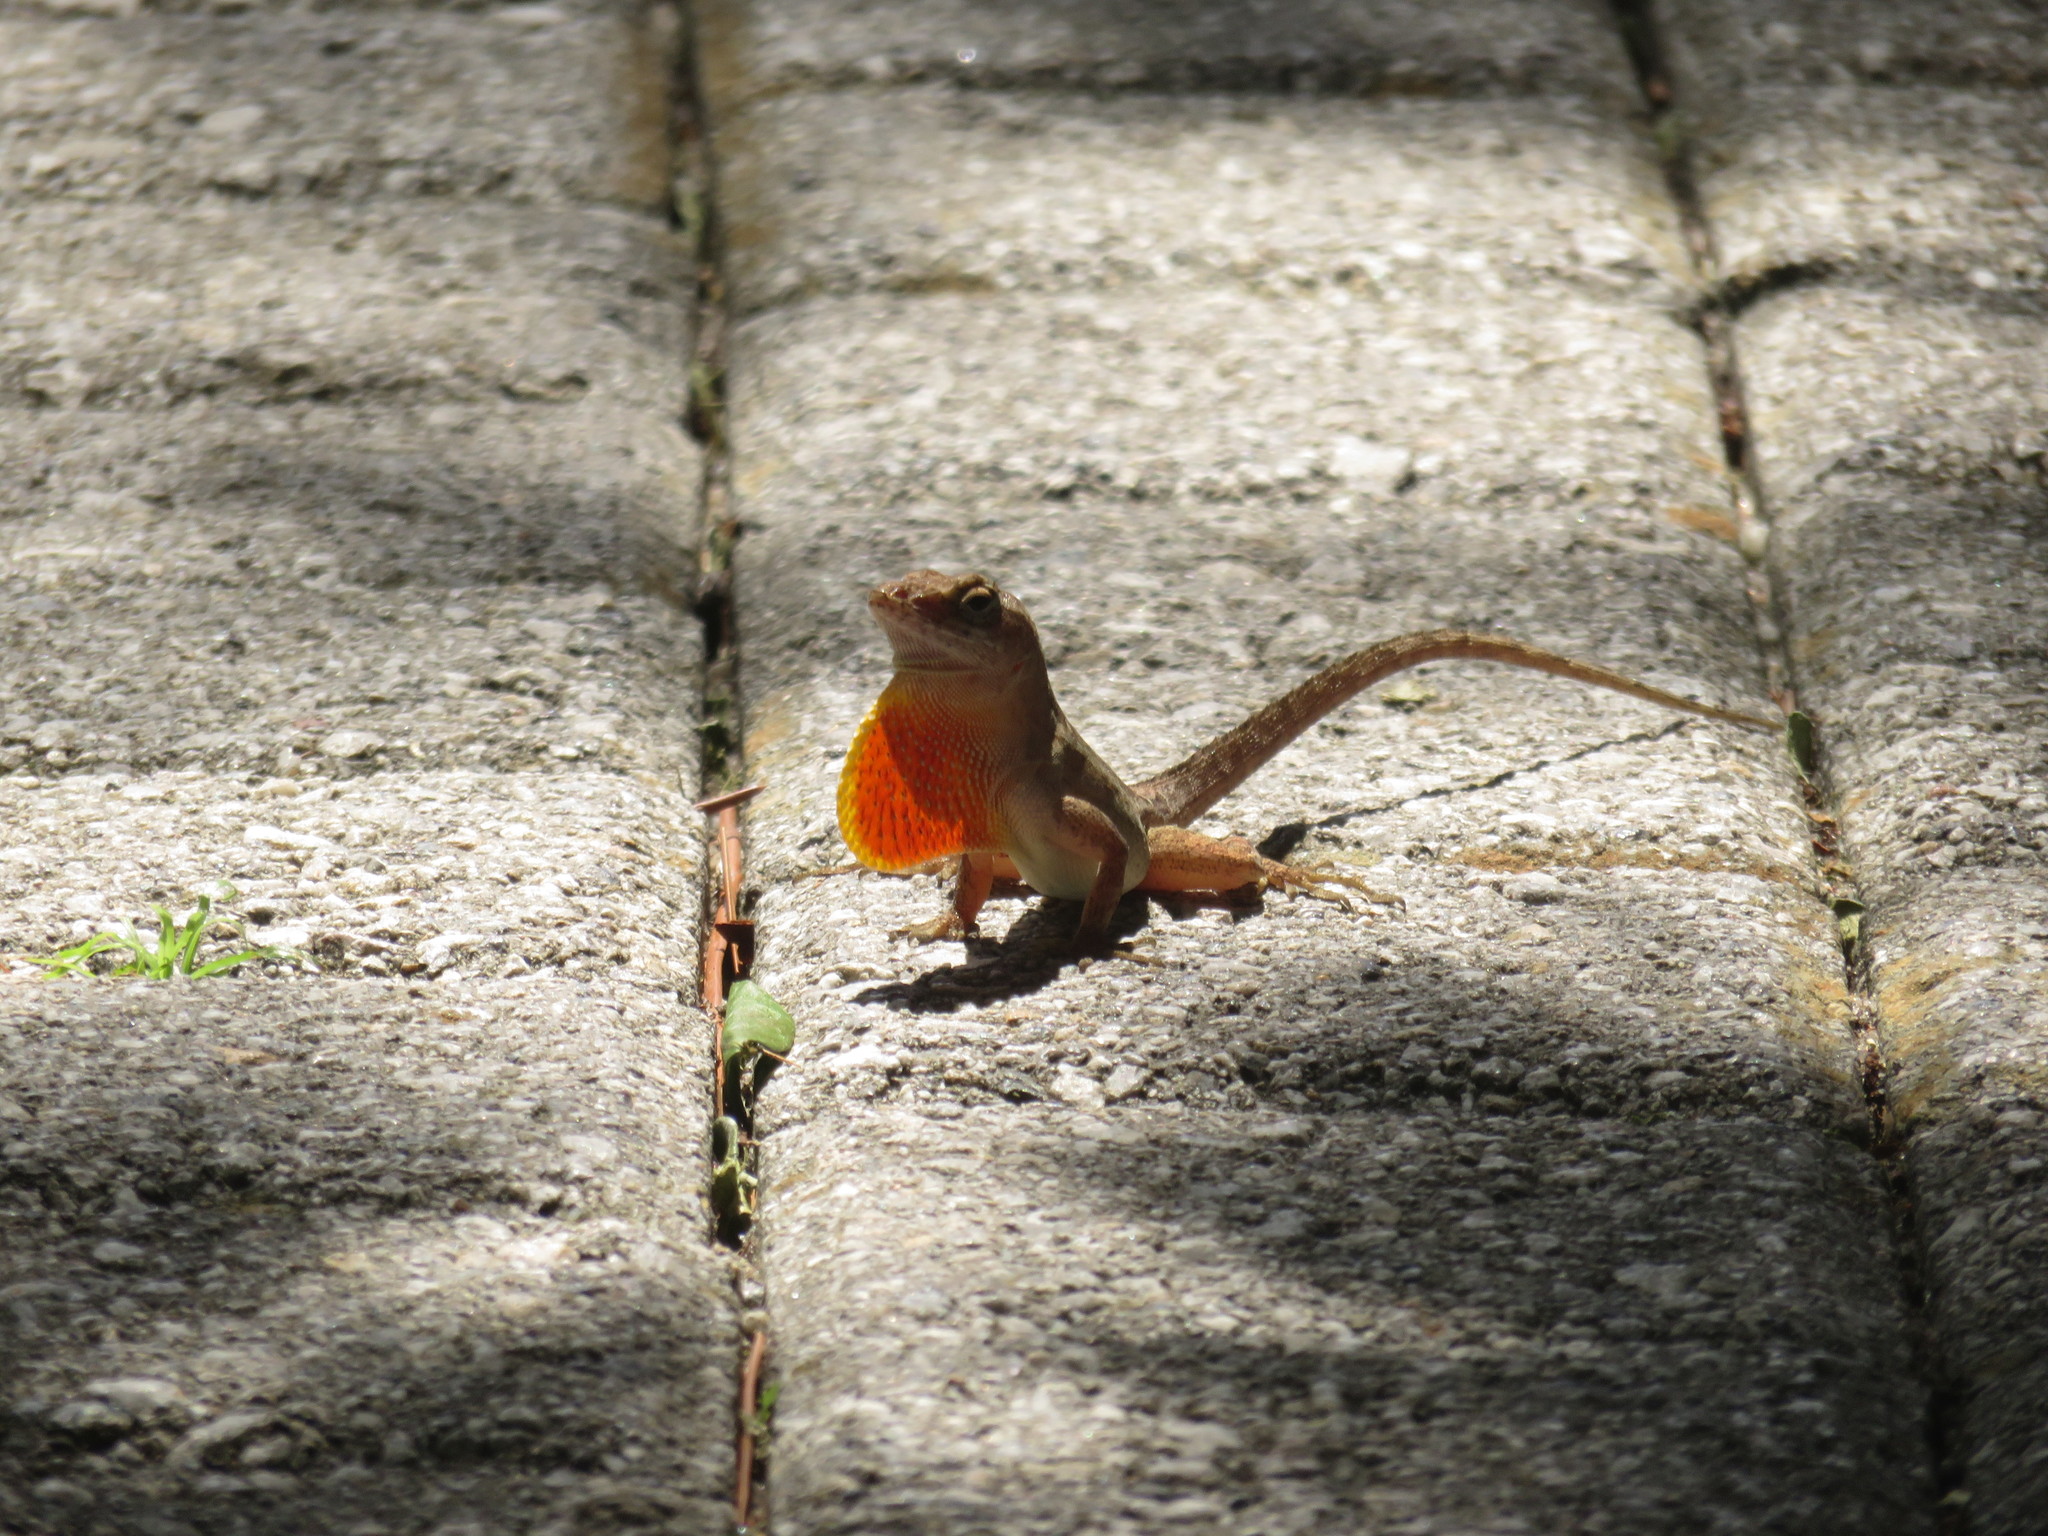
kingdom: Animalia
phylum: Chordata
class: Squamata
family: Dactyloidae
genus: Anolis
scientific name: Anolis sagrei
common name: Brown anole
